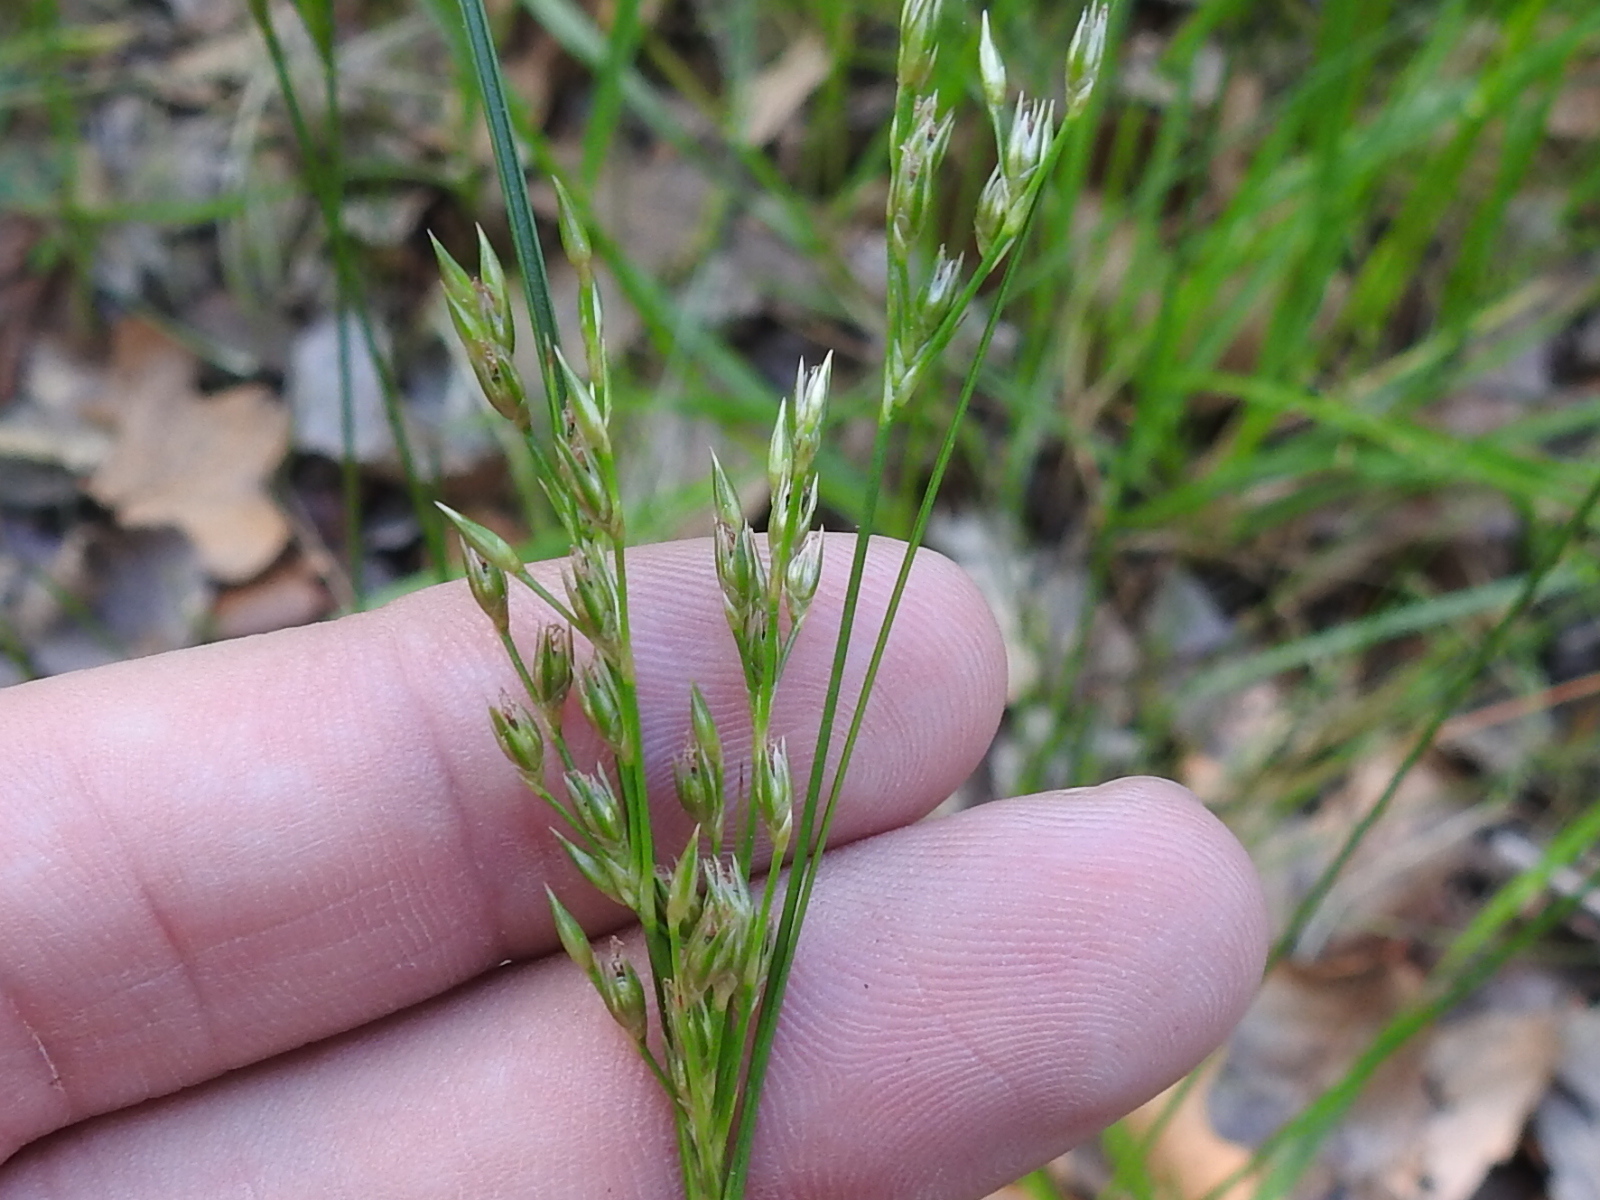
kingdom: Plantae
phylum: Tracheophyta
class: Liliopsida
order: Poales
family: Juncaceae
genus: Juncus
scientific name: Juncus interior
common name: Interior rush
